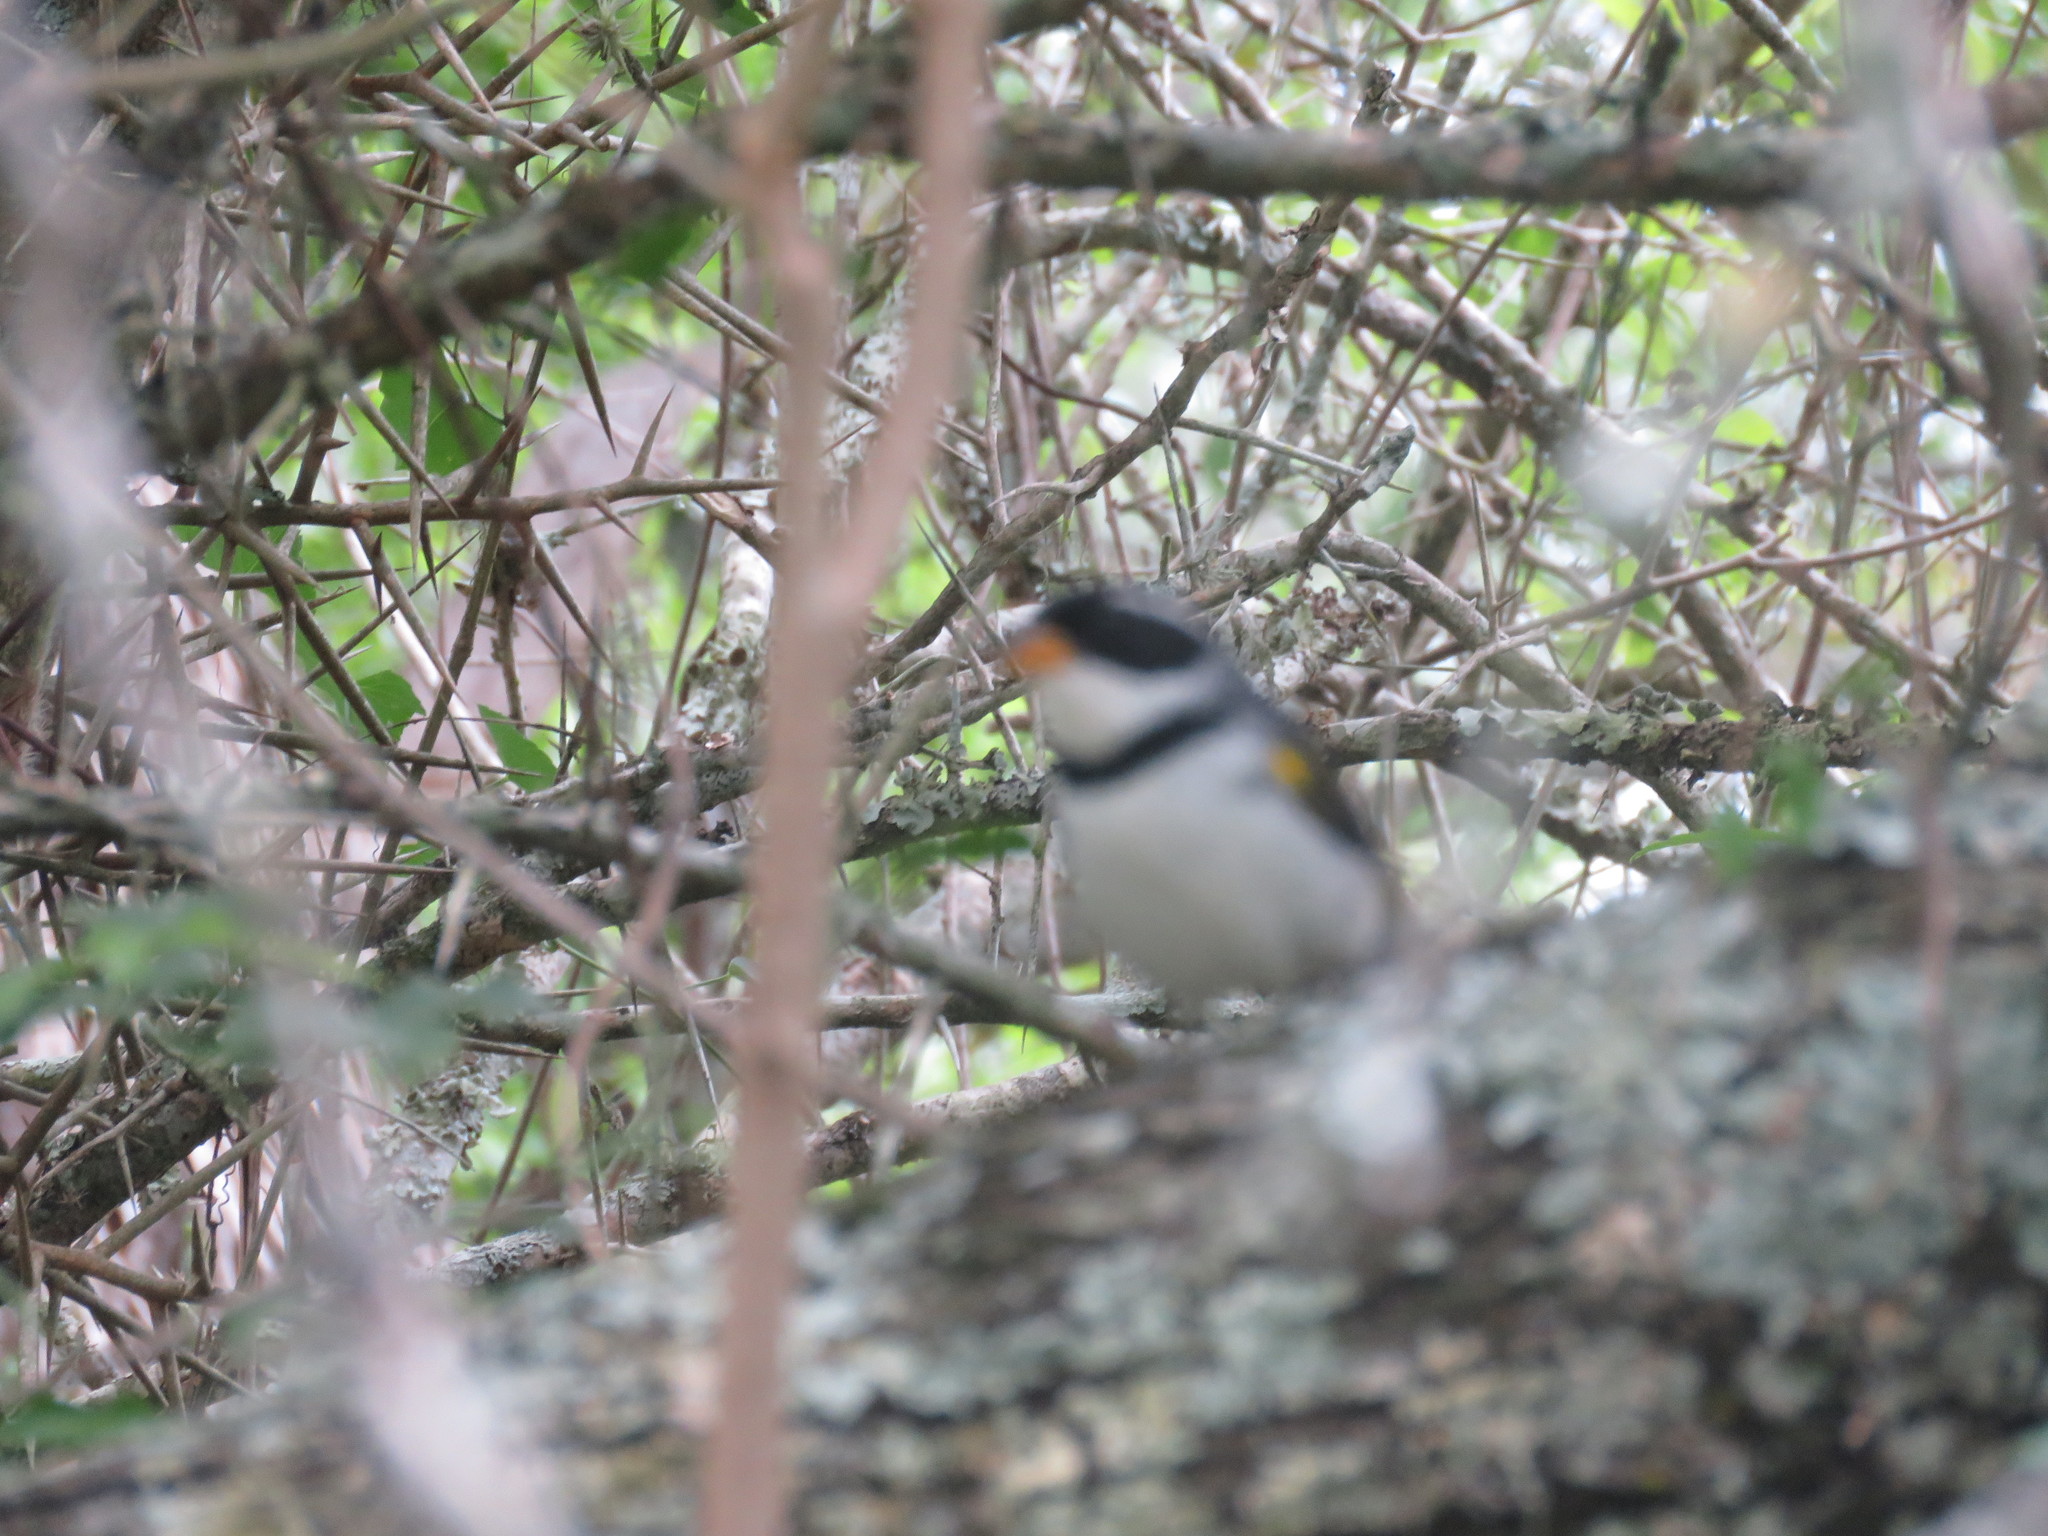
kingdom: Animalia
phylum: Chordata
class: Aves
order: Passeriformes
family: Passerellidae
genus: Arremon
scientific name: Arremon flavirostris
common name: Saffron-billed sparrow
